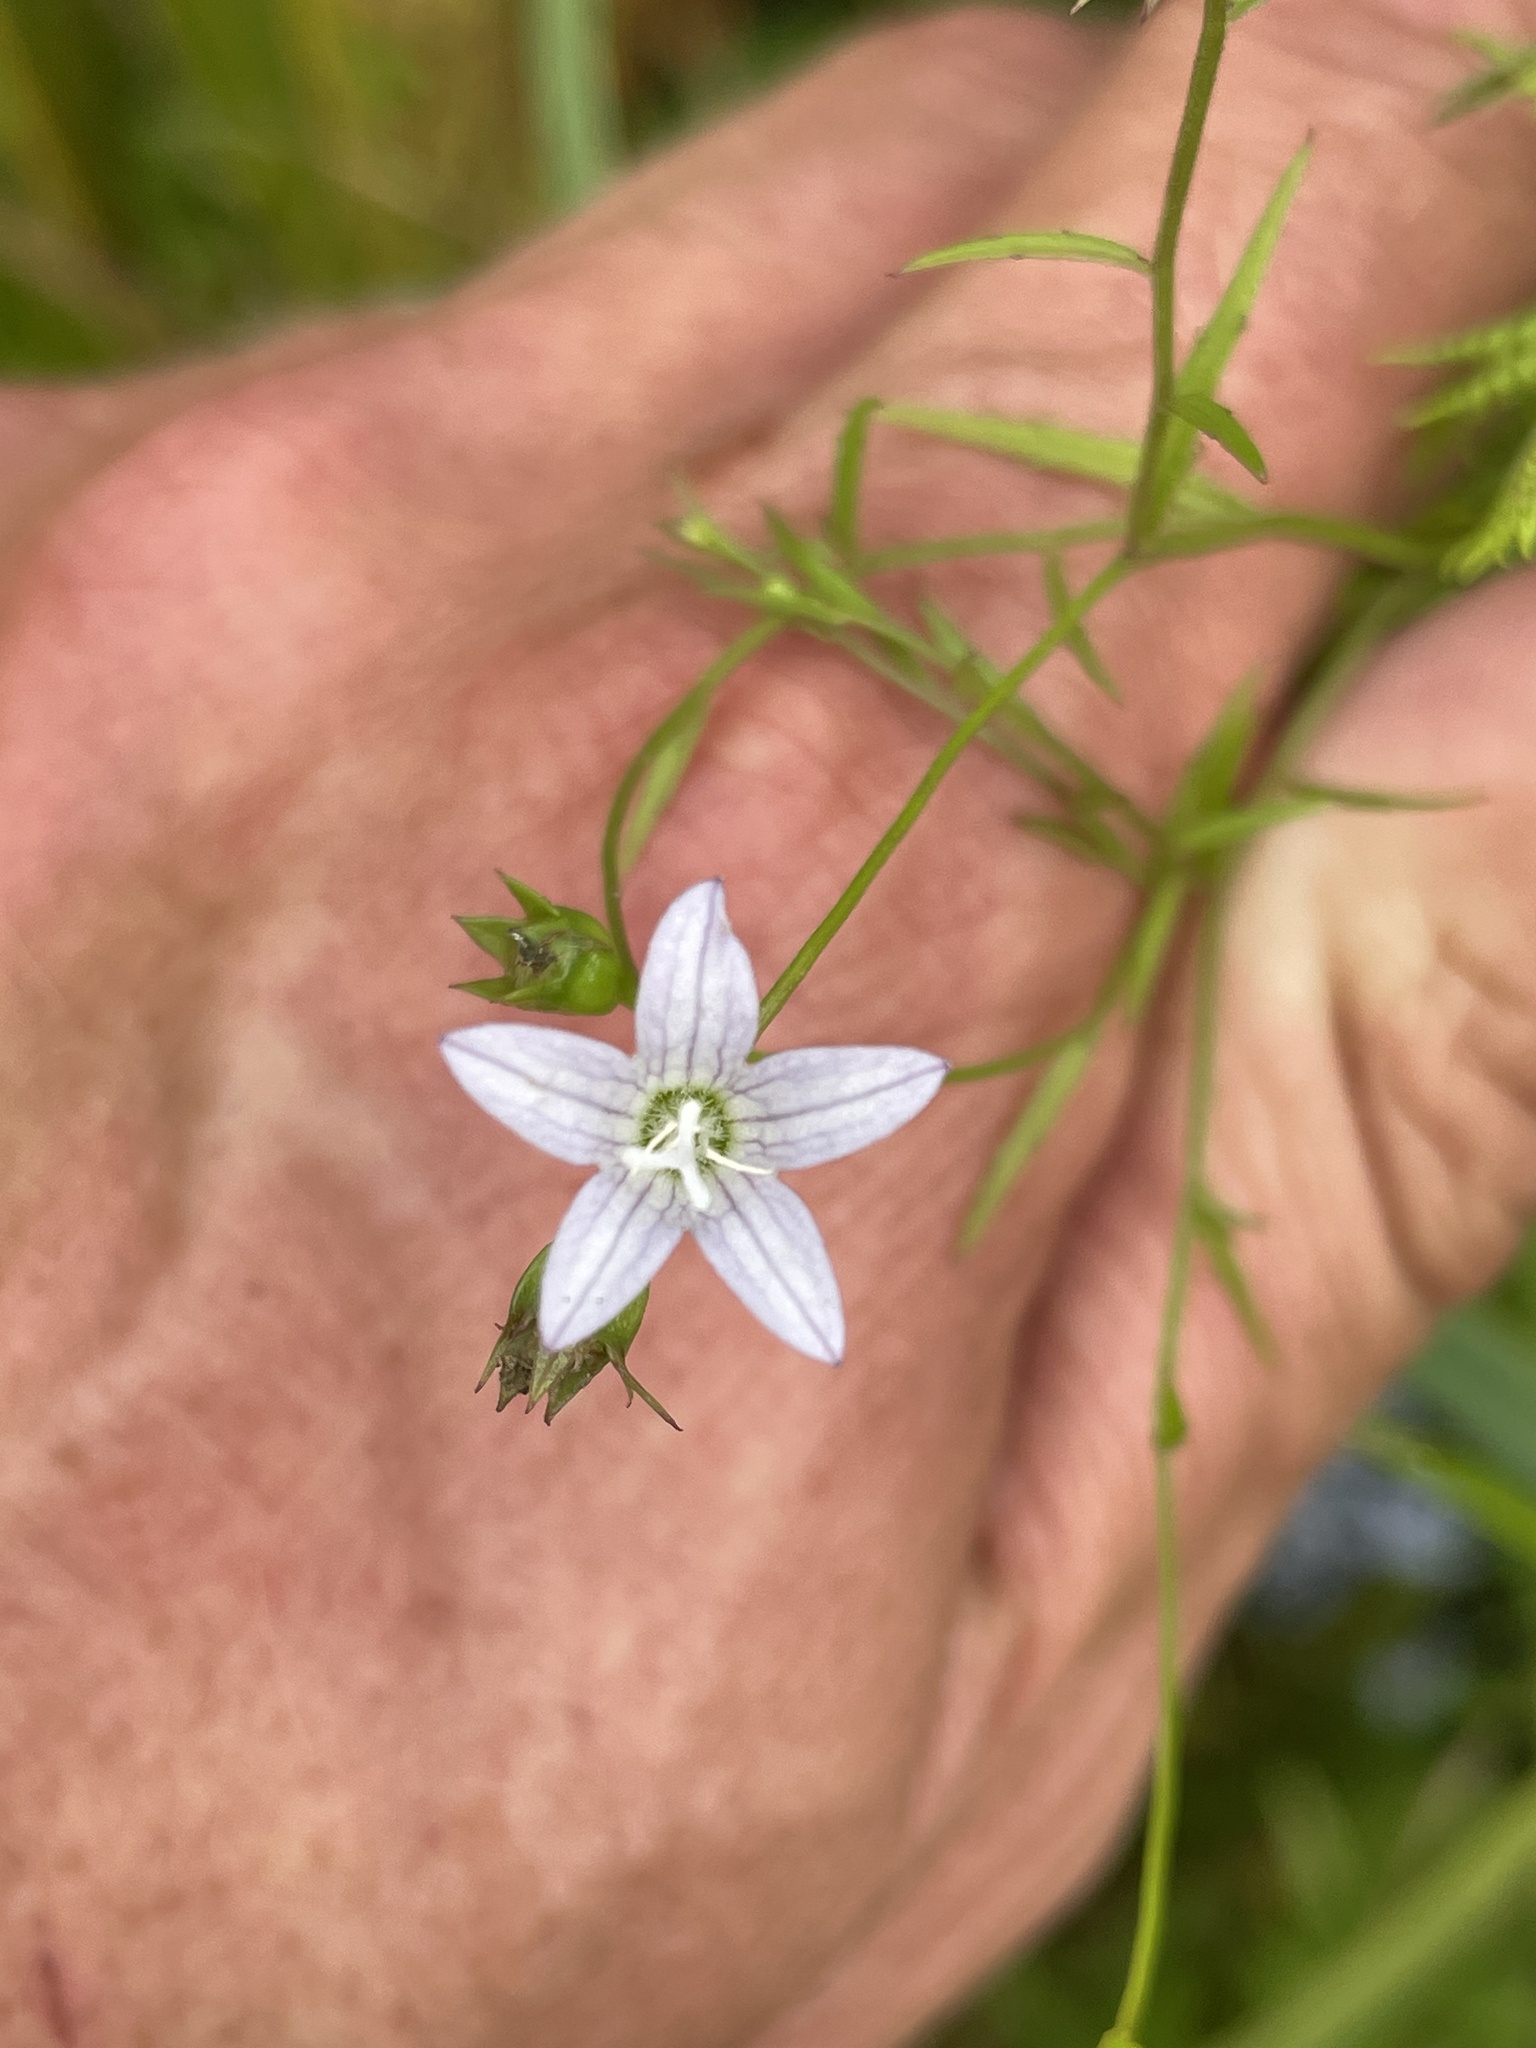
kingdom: Plantae
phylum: Tracheophyta
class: Magnoliopsida
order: Asterales
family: Campanulaceae
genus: Palustricodon
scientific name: Palustricodon aparinoides
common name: Bedstraw bellflower
